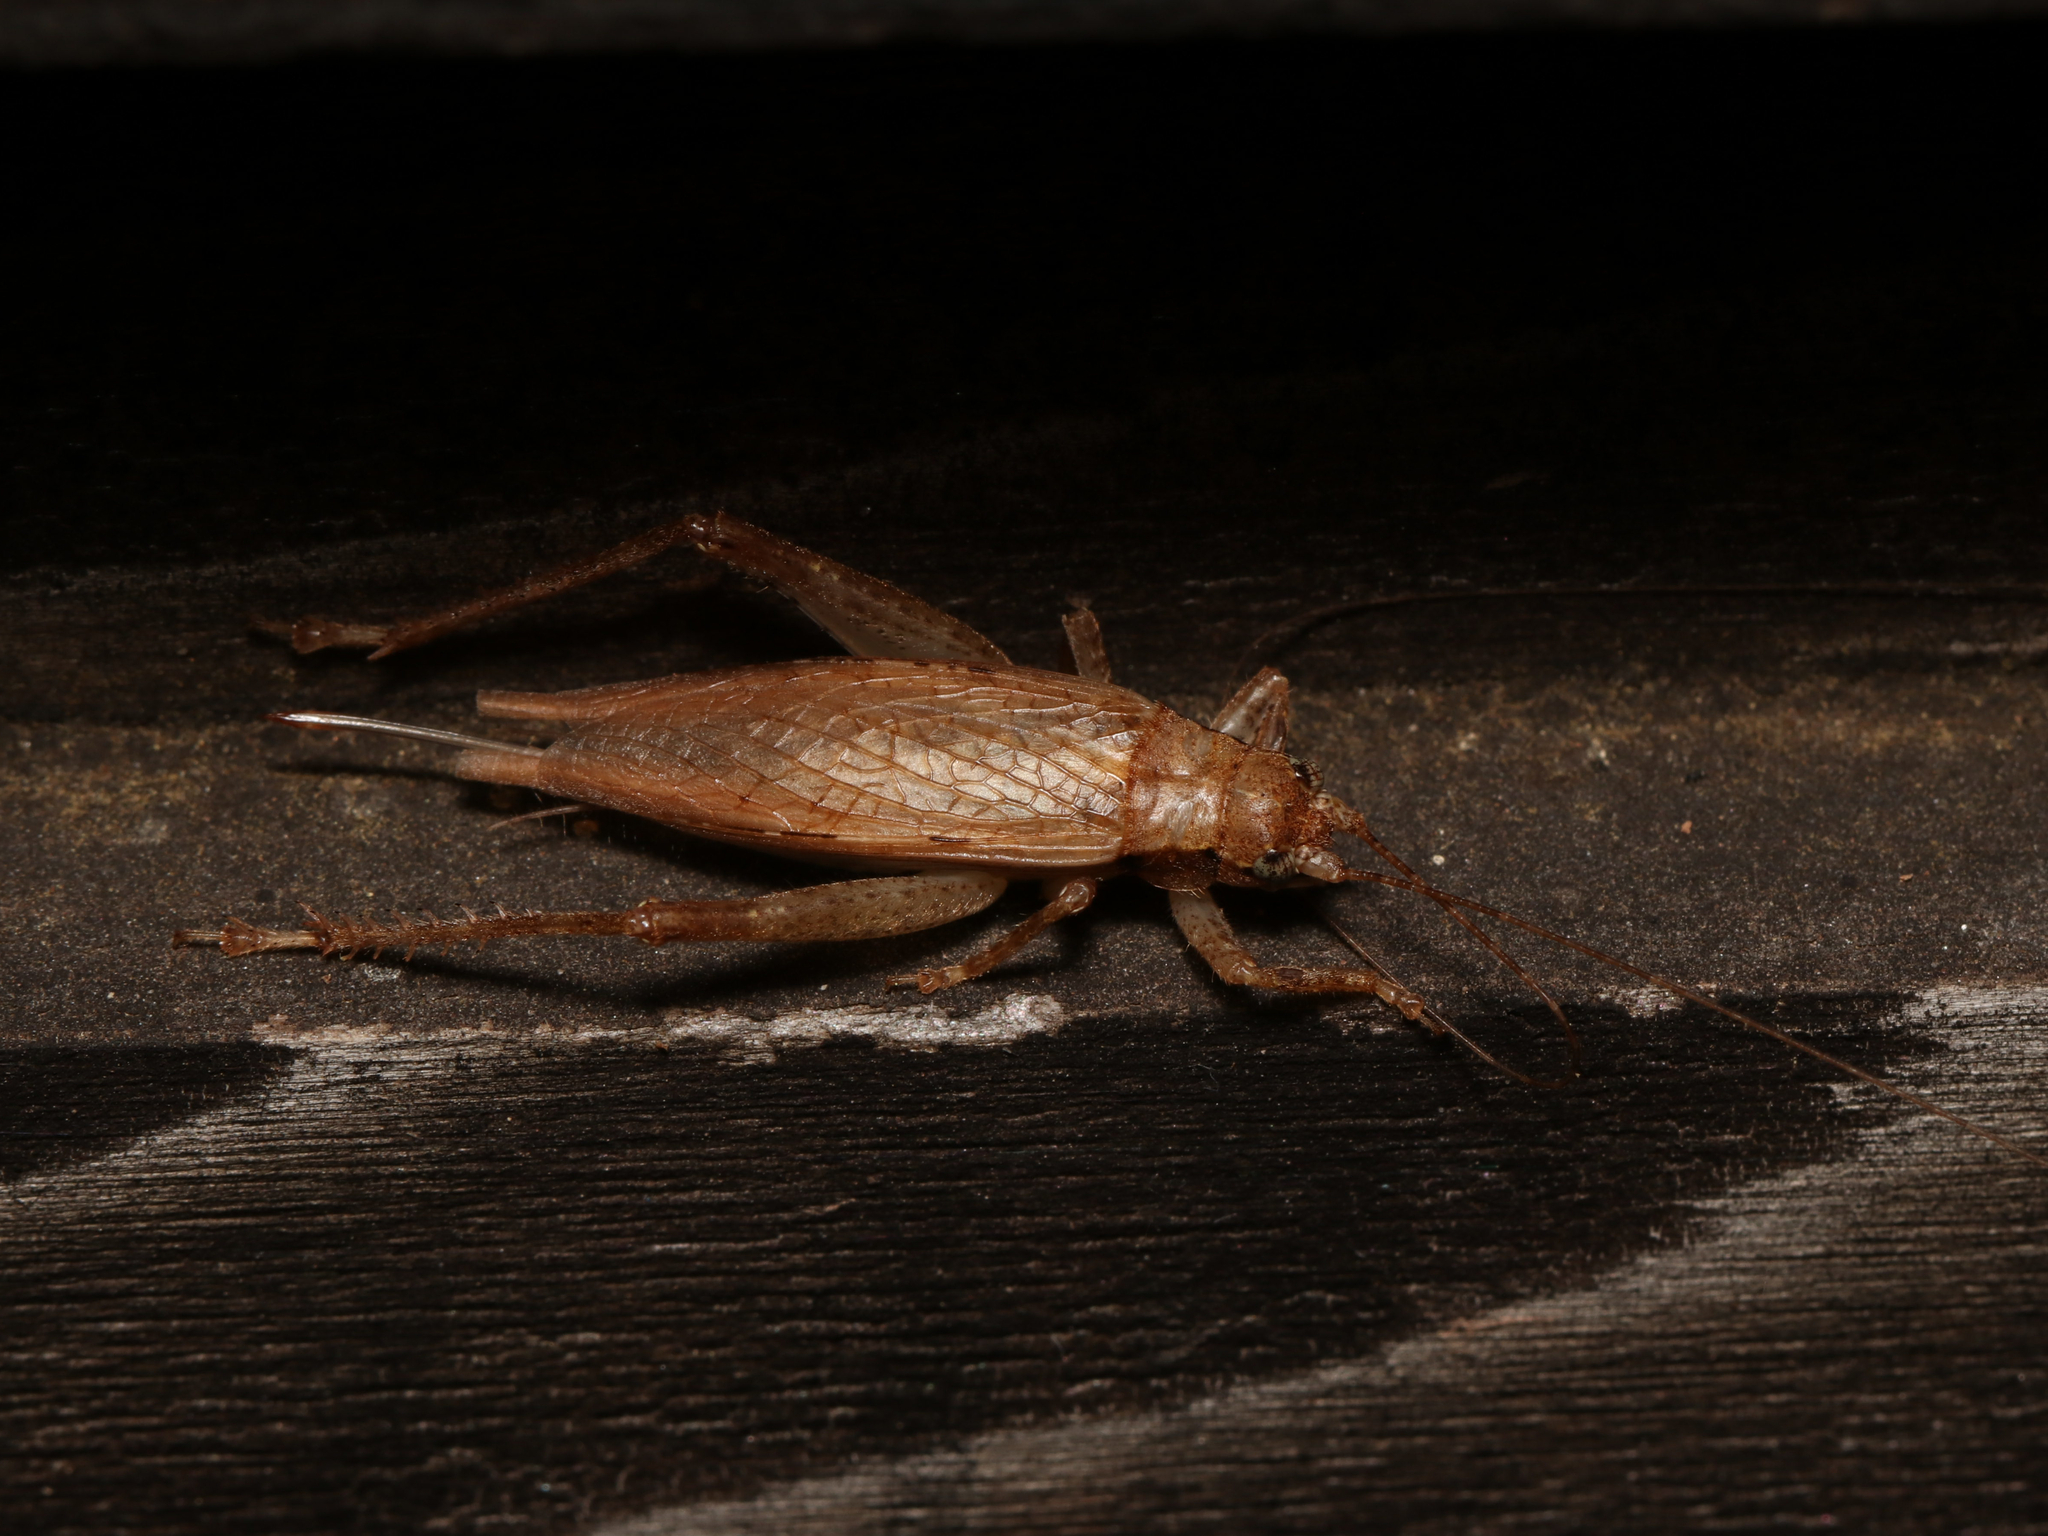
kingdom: Animalia
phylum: Arthropoda
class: Insecta
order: Orthoptera
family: Gryllidae
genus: Hapithus
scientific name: Hapithus saltator
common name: Jumping bush cricket
